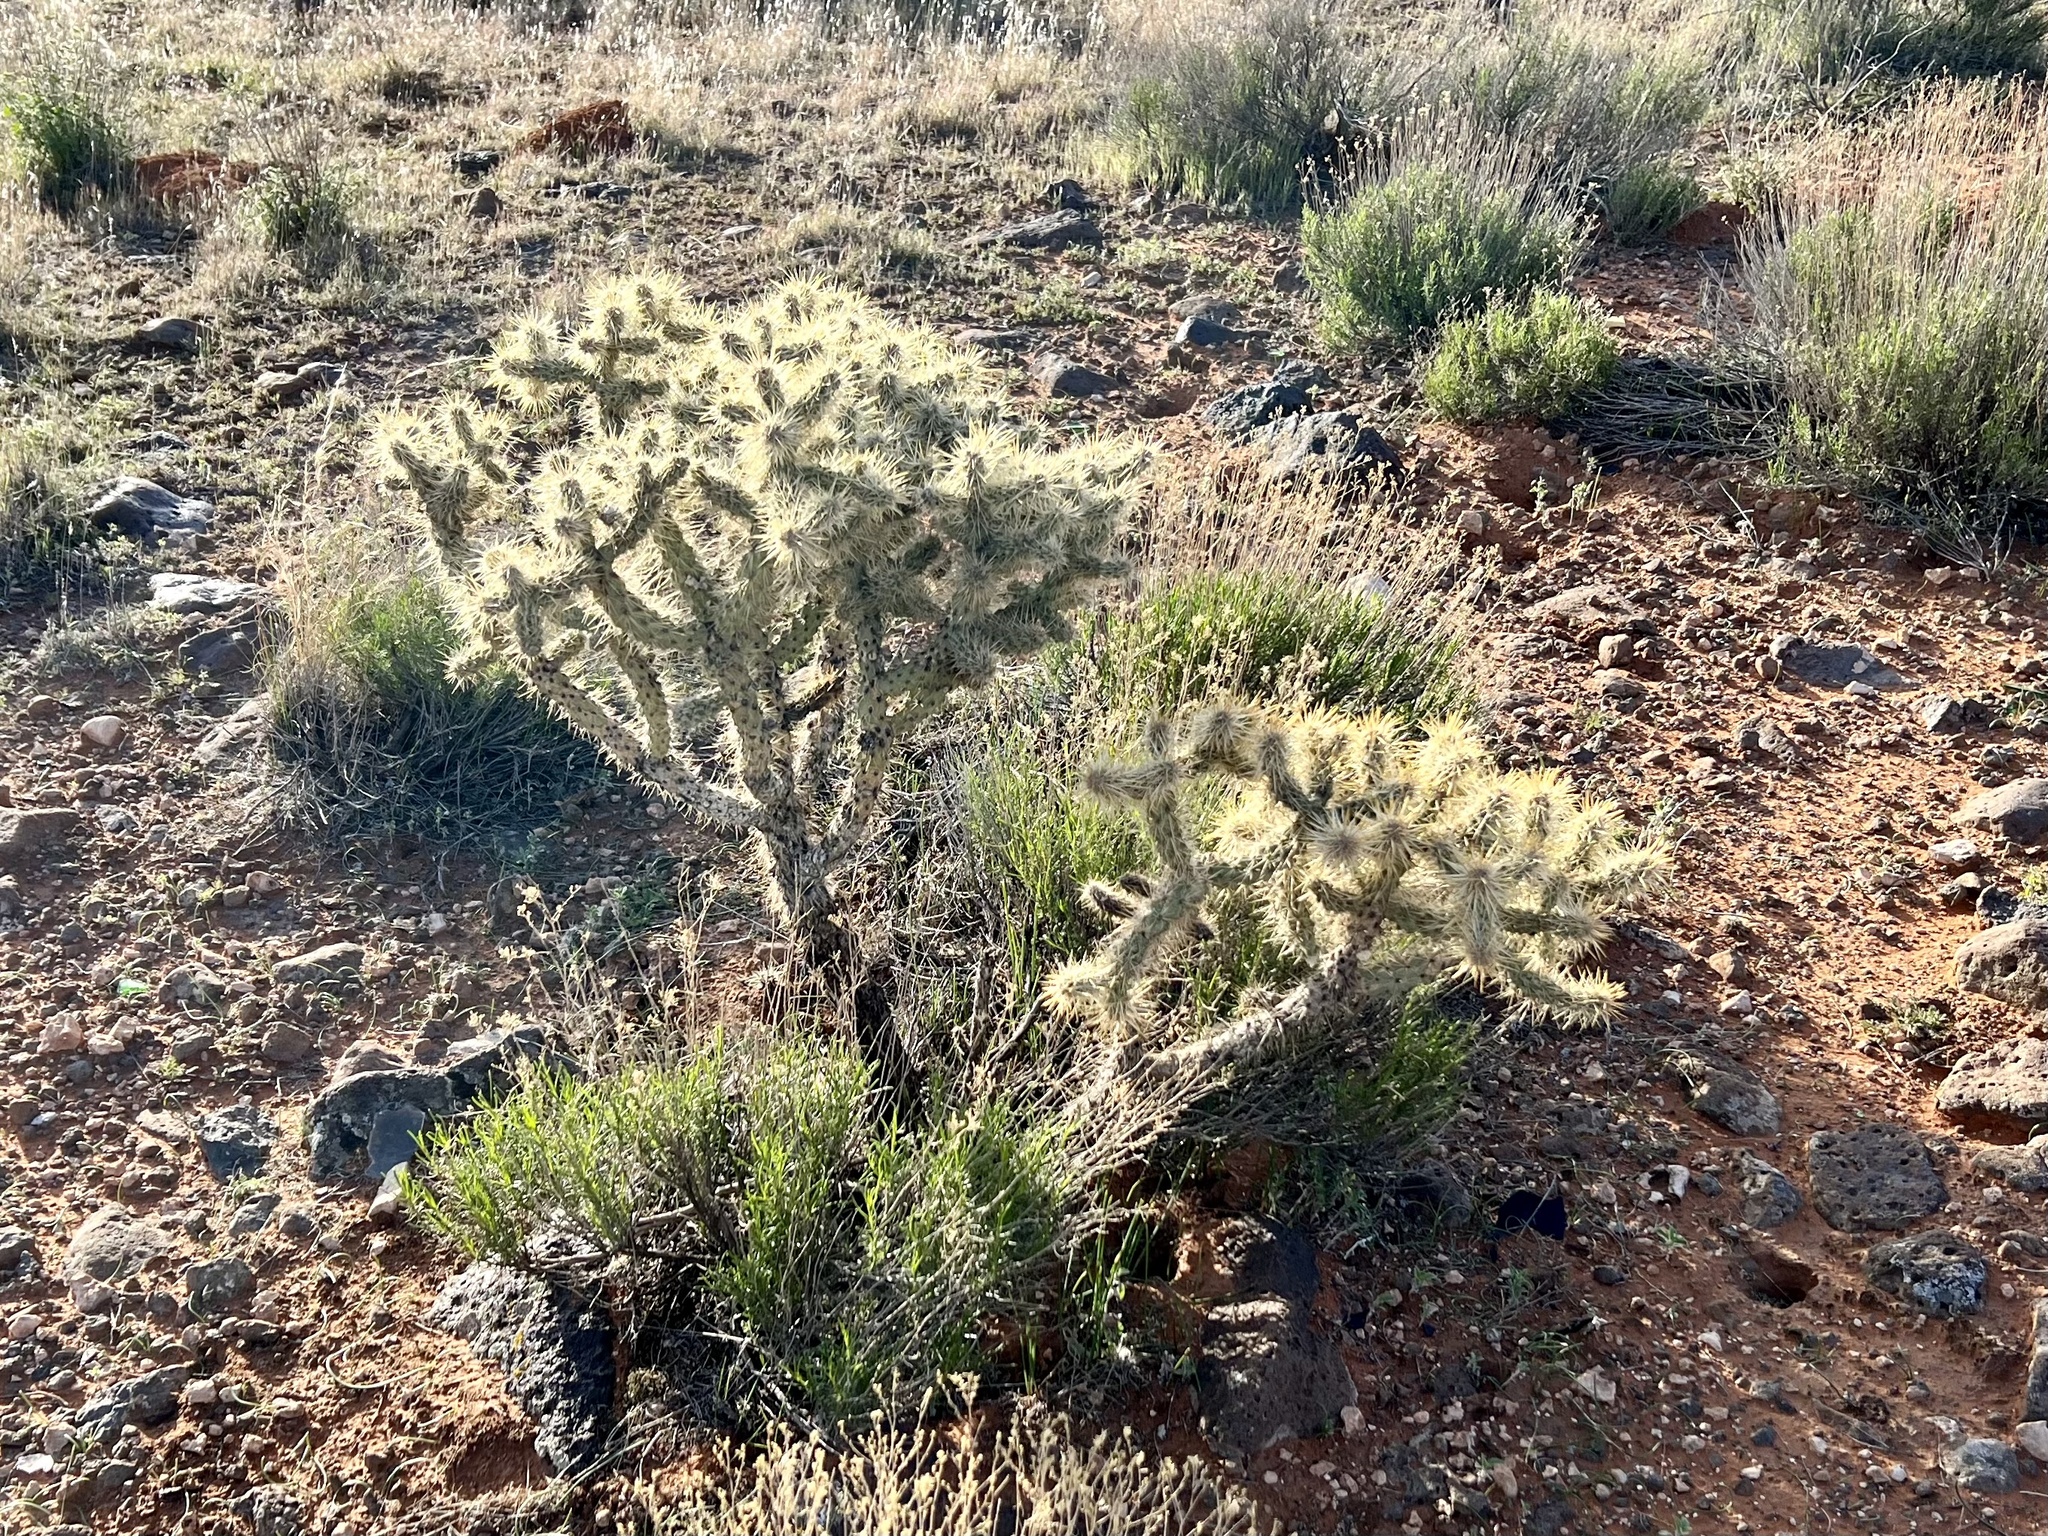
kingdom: Plantae
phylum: Tracheophyta
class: Magnoliopsida
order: Caryophyllales
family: Cactaceae
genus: Cylindropuntia
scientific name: Cylindropuntia echinocarpa
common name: Ground cholla
